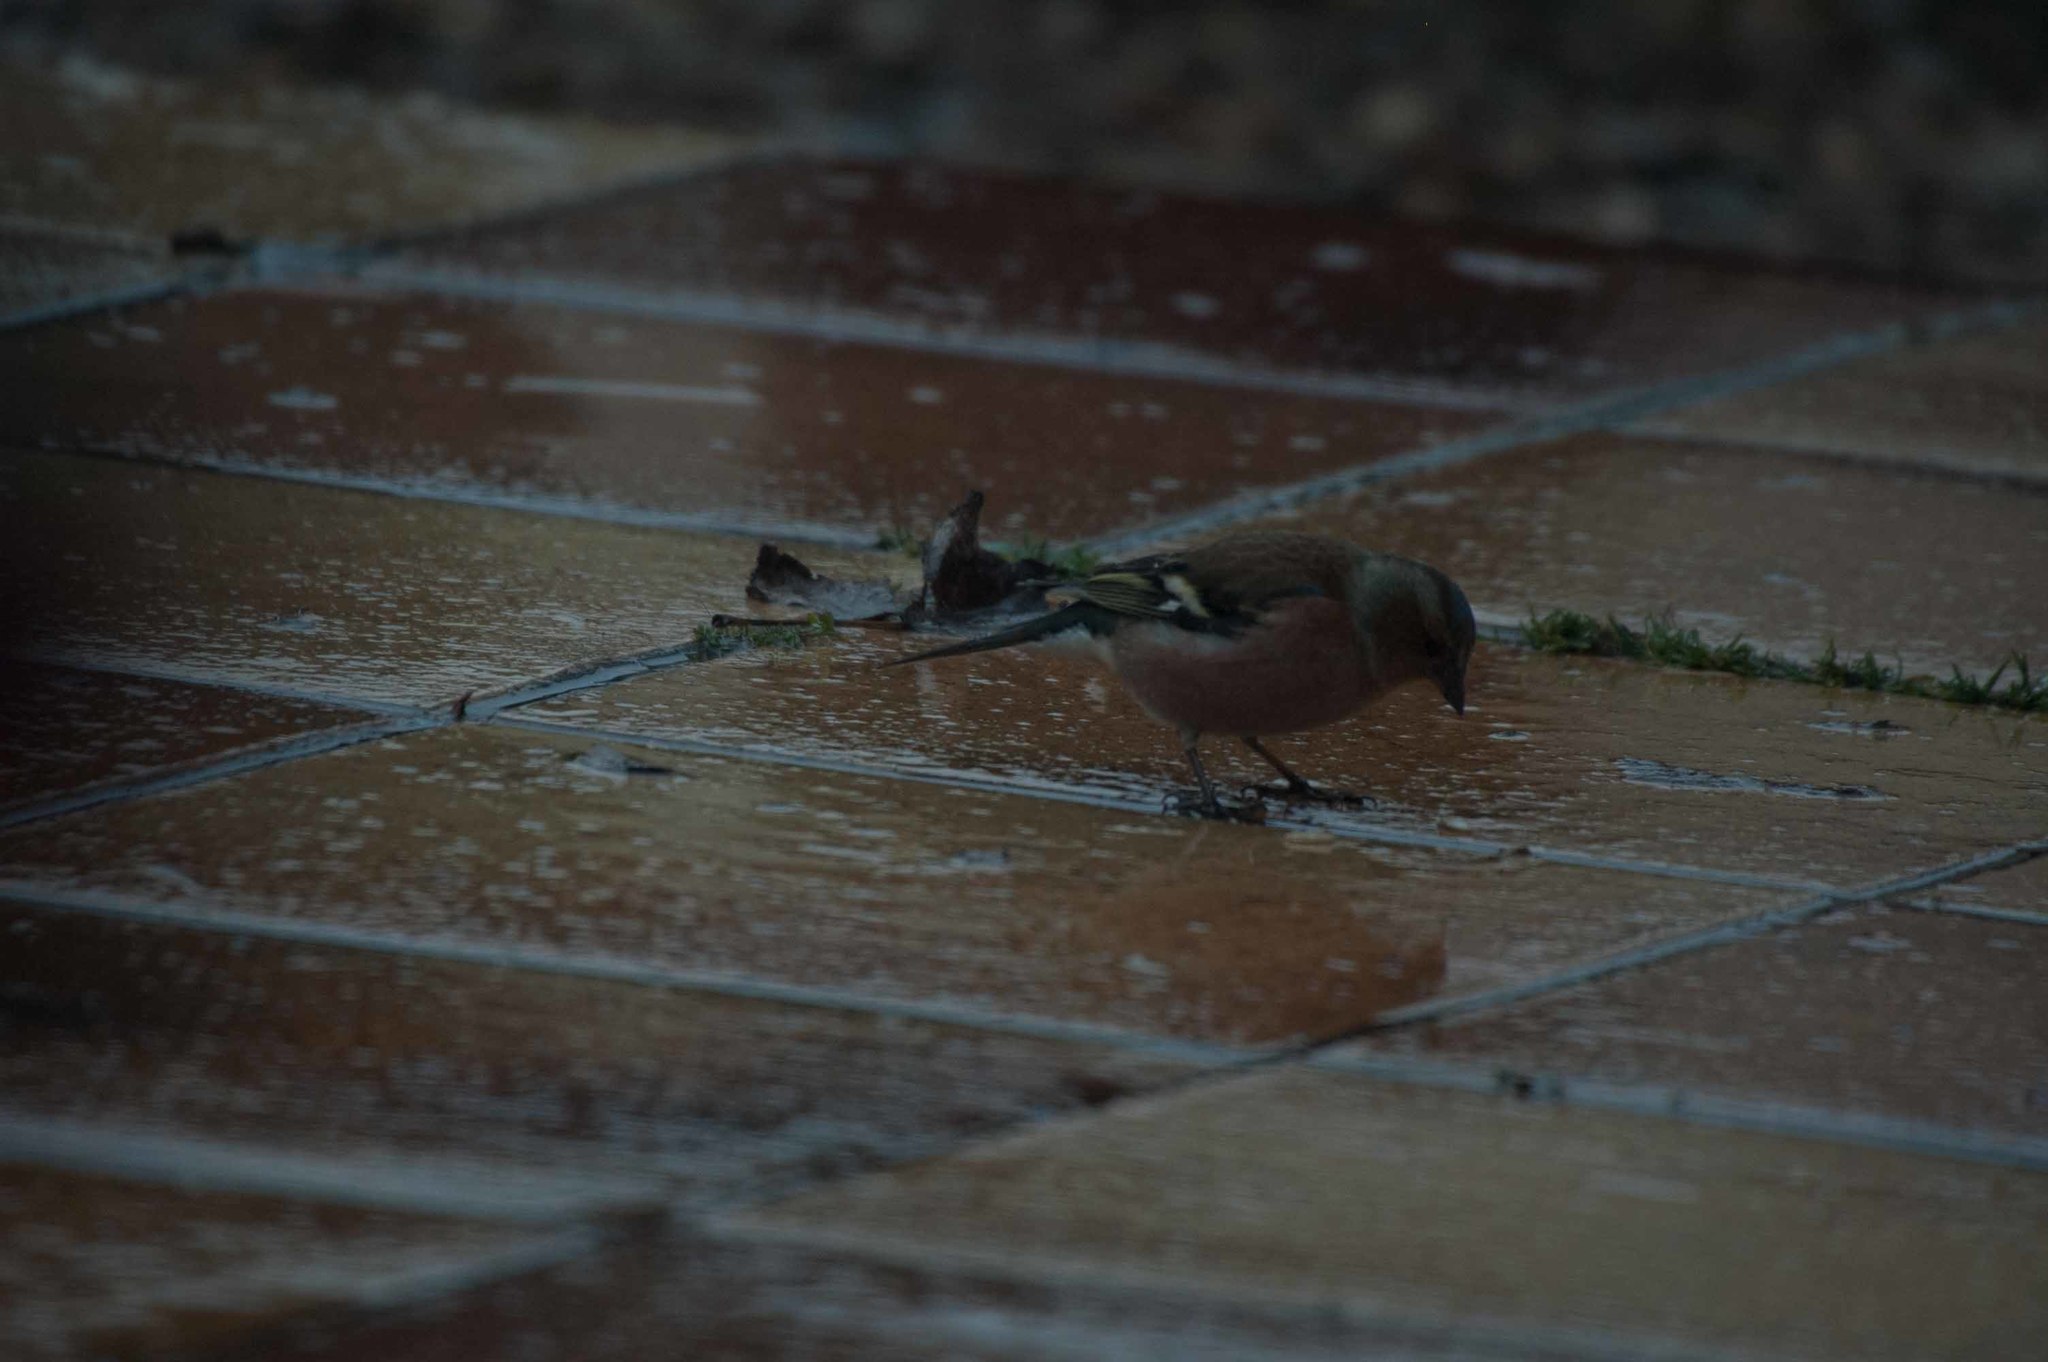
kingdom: Animalia
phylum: Chordata
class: Aves
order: Passeriformes
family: Fringillidae
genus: Fringilla
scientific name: Fringilla coelebs
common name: Common chaffinch
